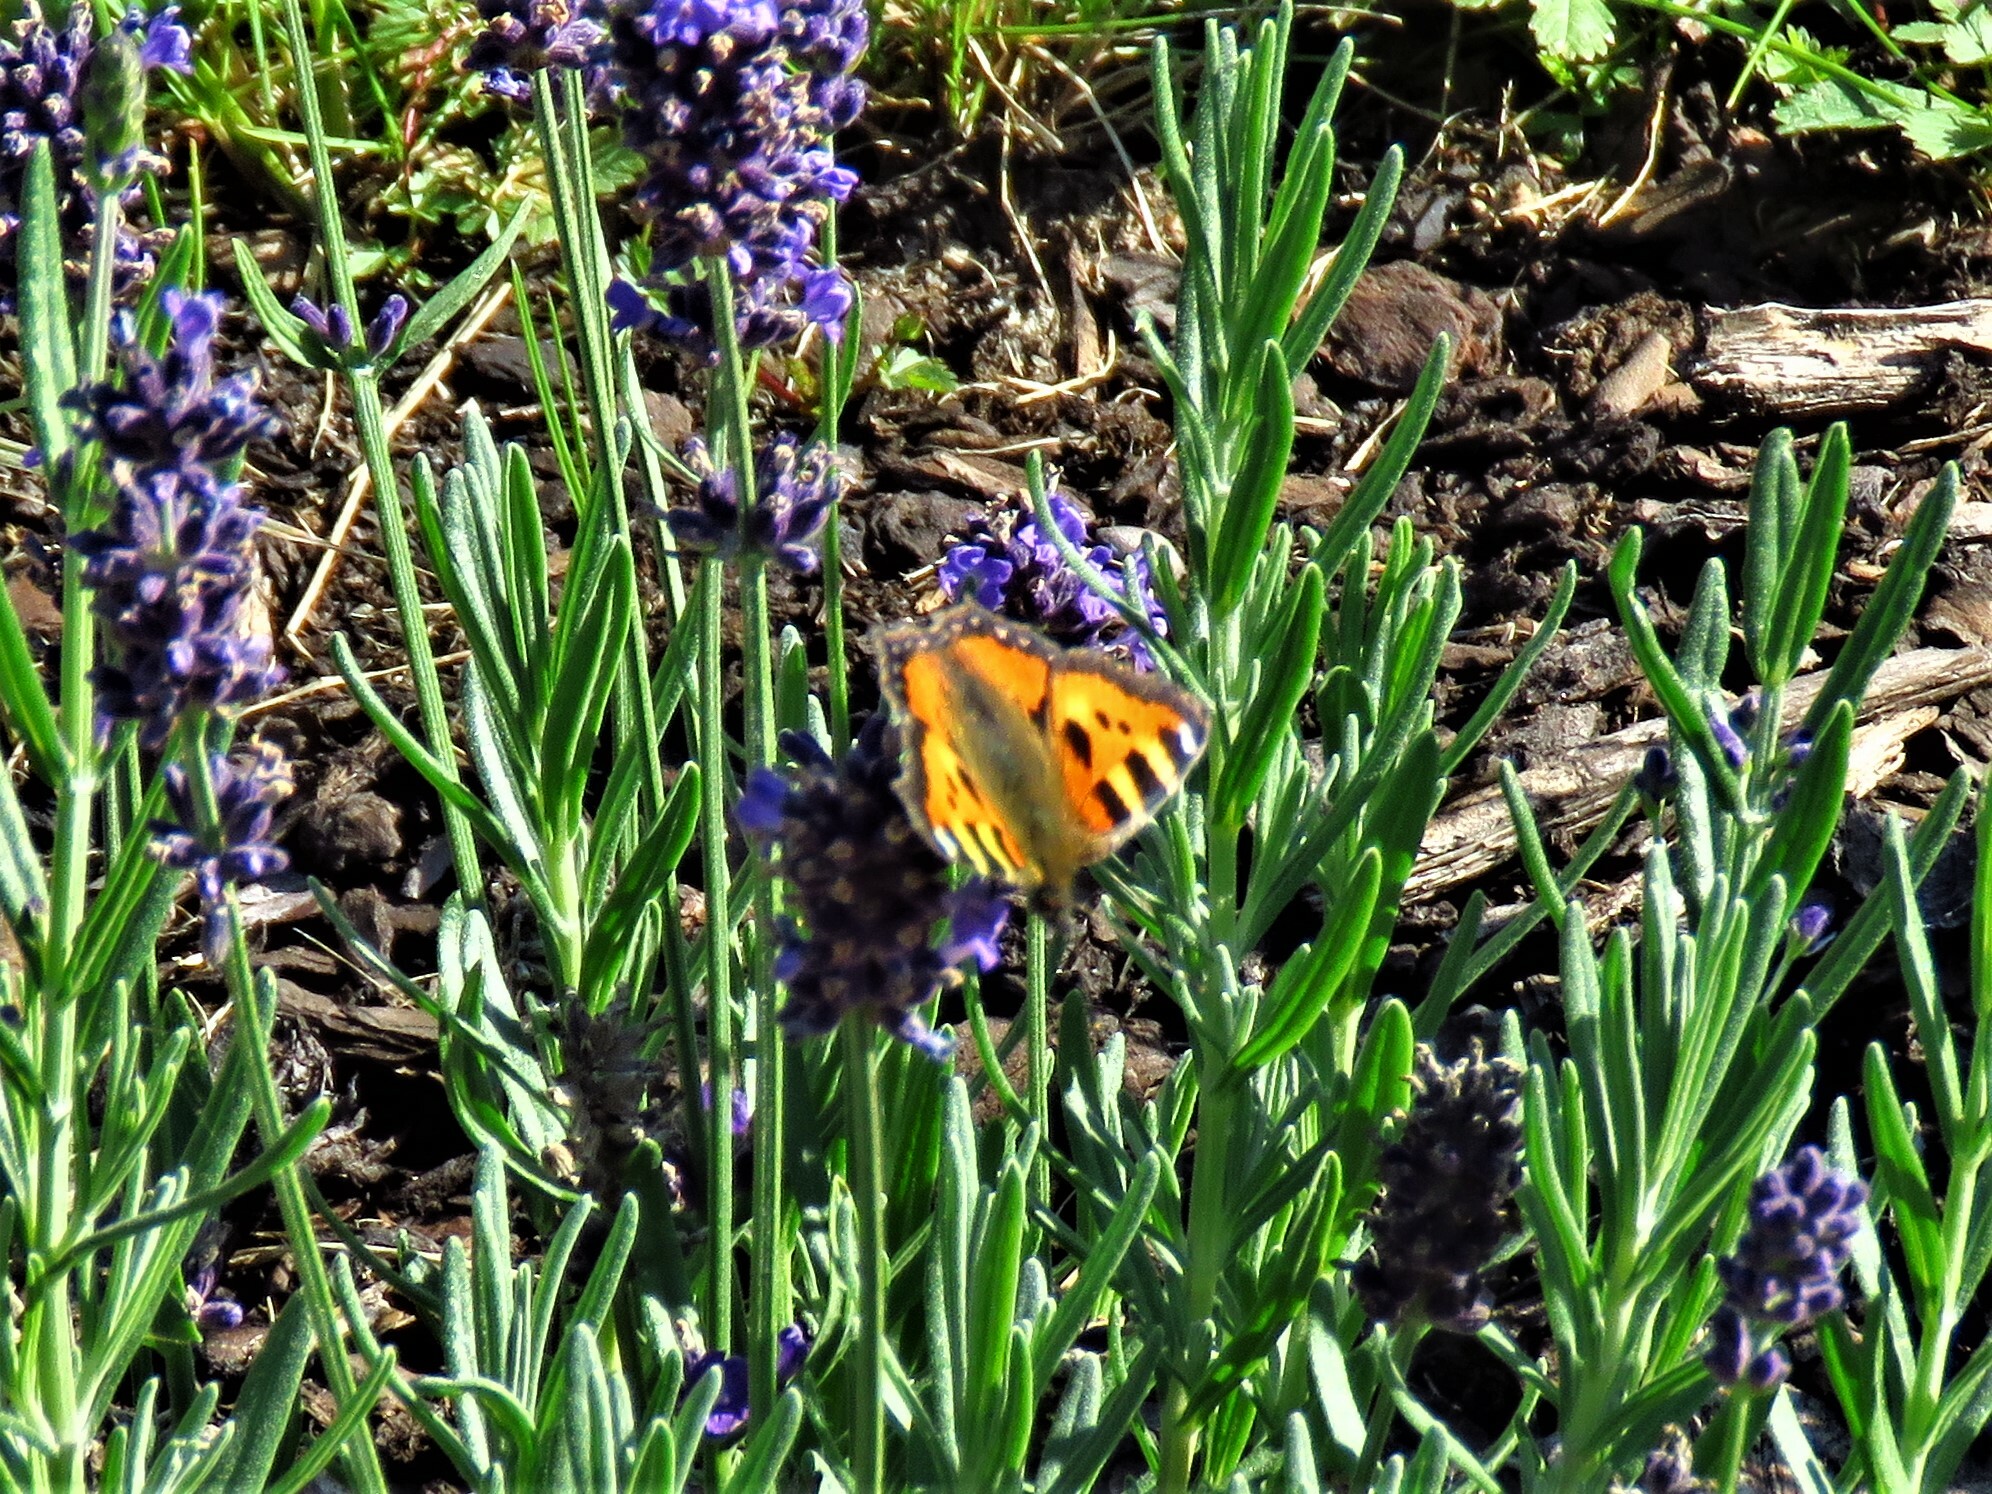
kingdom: Animalia
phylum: Arthropoda
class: Insecta
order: Lepidoptera
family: Nymphalidae
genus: Aglais
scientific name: Aglais urticae
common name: Small tortoiseshell
